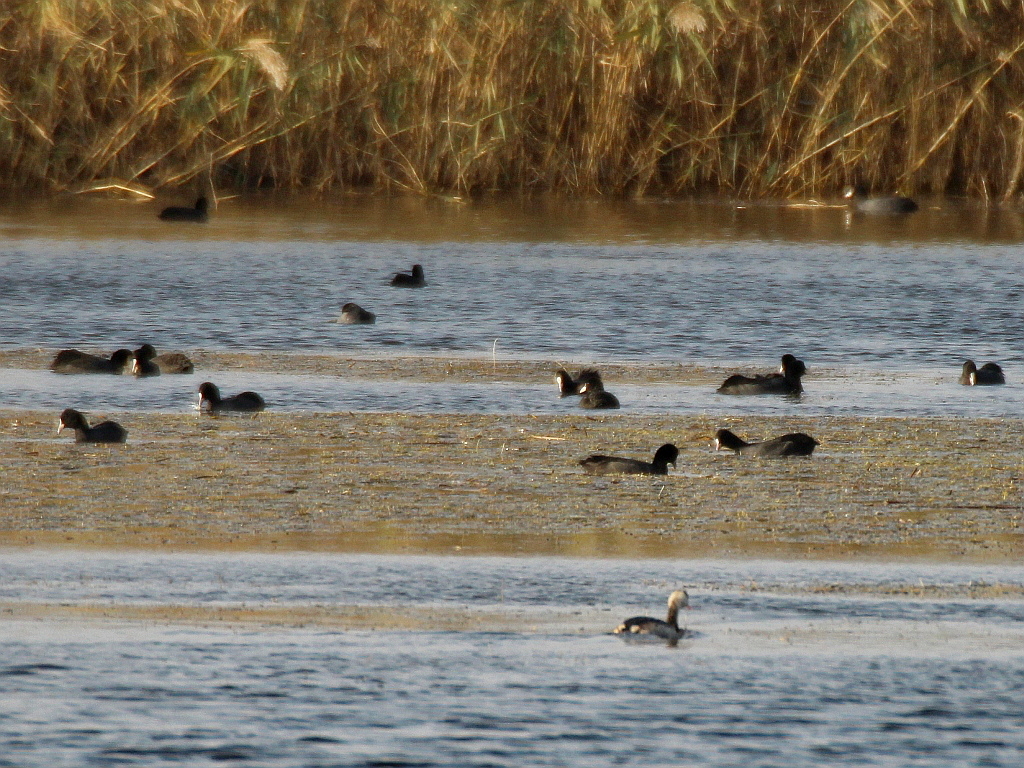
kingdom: Animalia
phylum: Chordata
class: Aves
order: Gruiformes
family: Rallidae
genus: Fulica
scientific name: Fulica atra
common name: Eurasian coot
